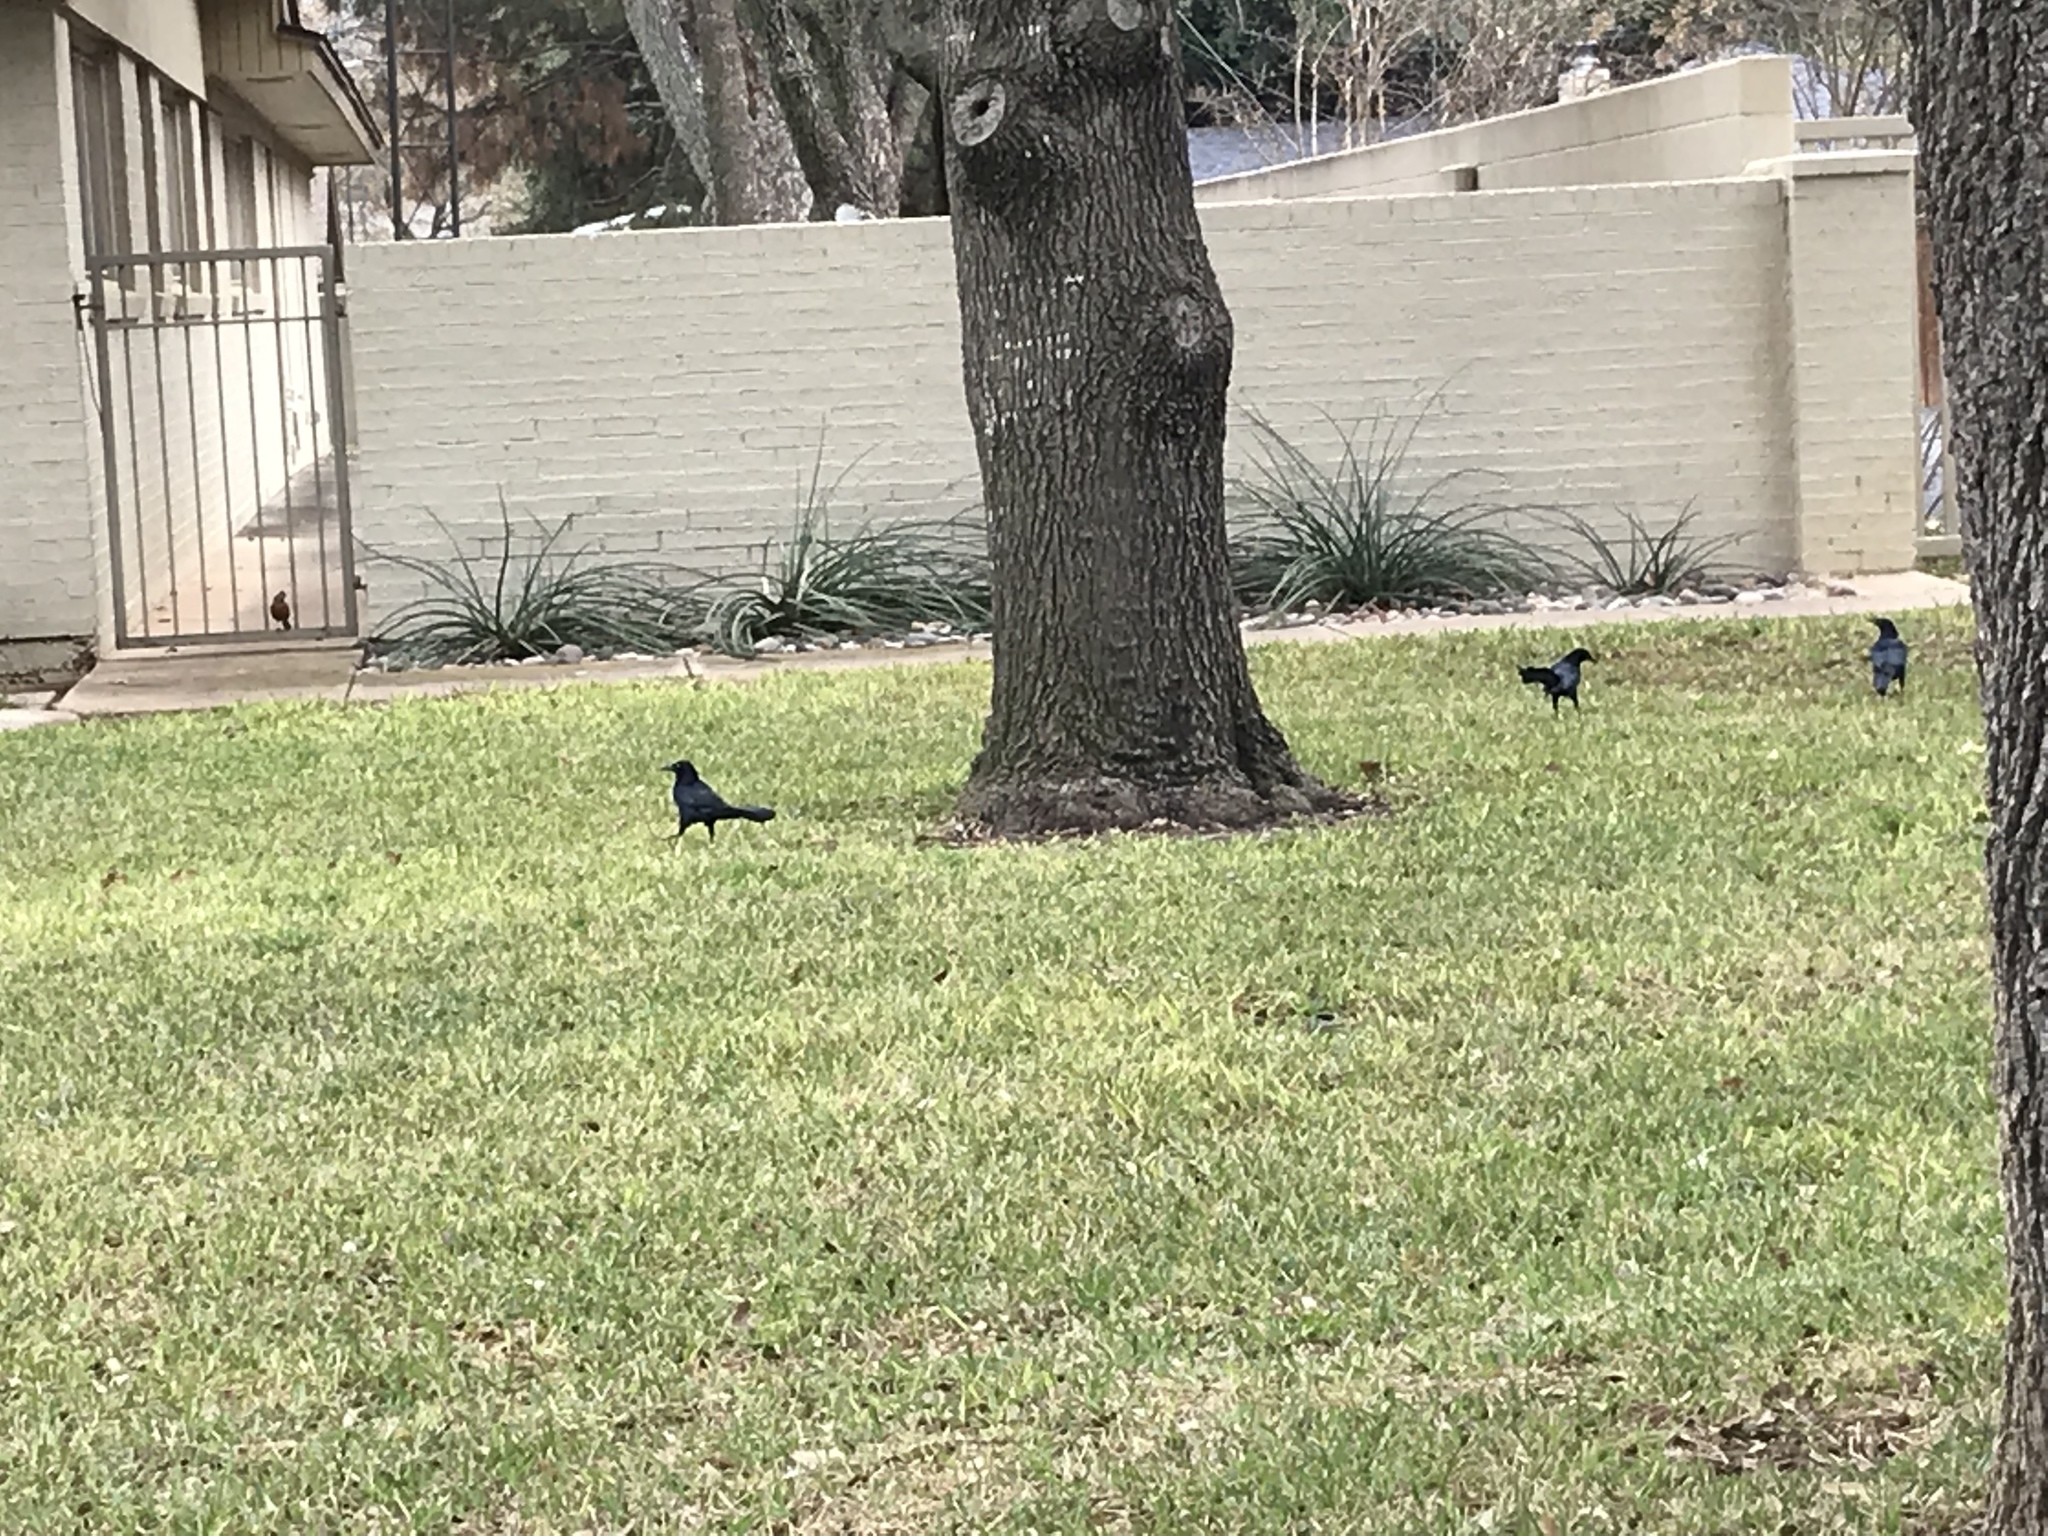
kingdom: Animalia
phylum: Chordata
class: Aves
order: Passeriformes
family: Icteridae
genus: Quiscalus
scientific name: Quiscalus mexicanus
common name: Great-tailed grackle
